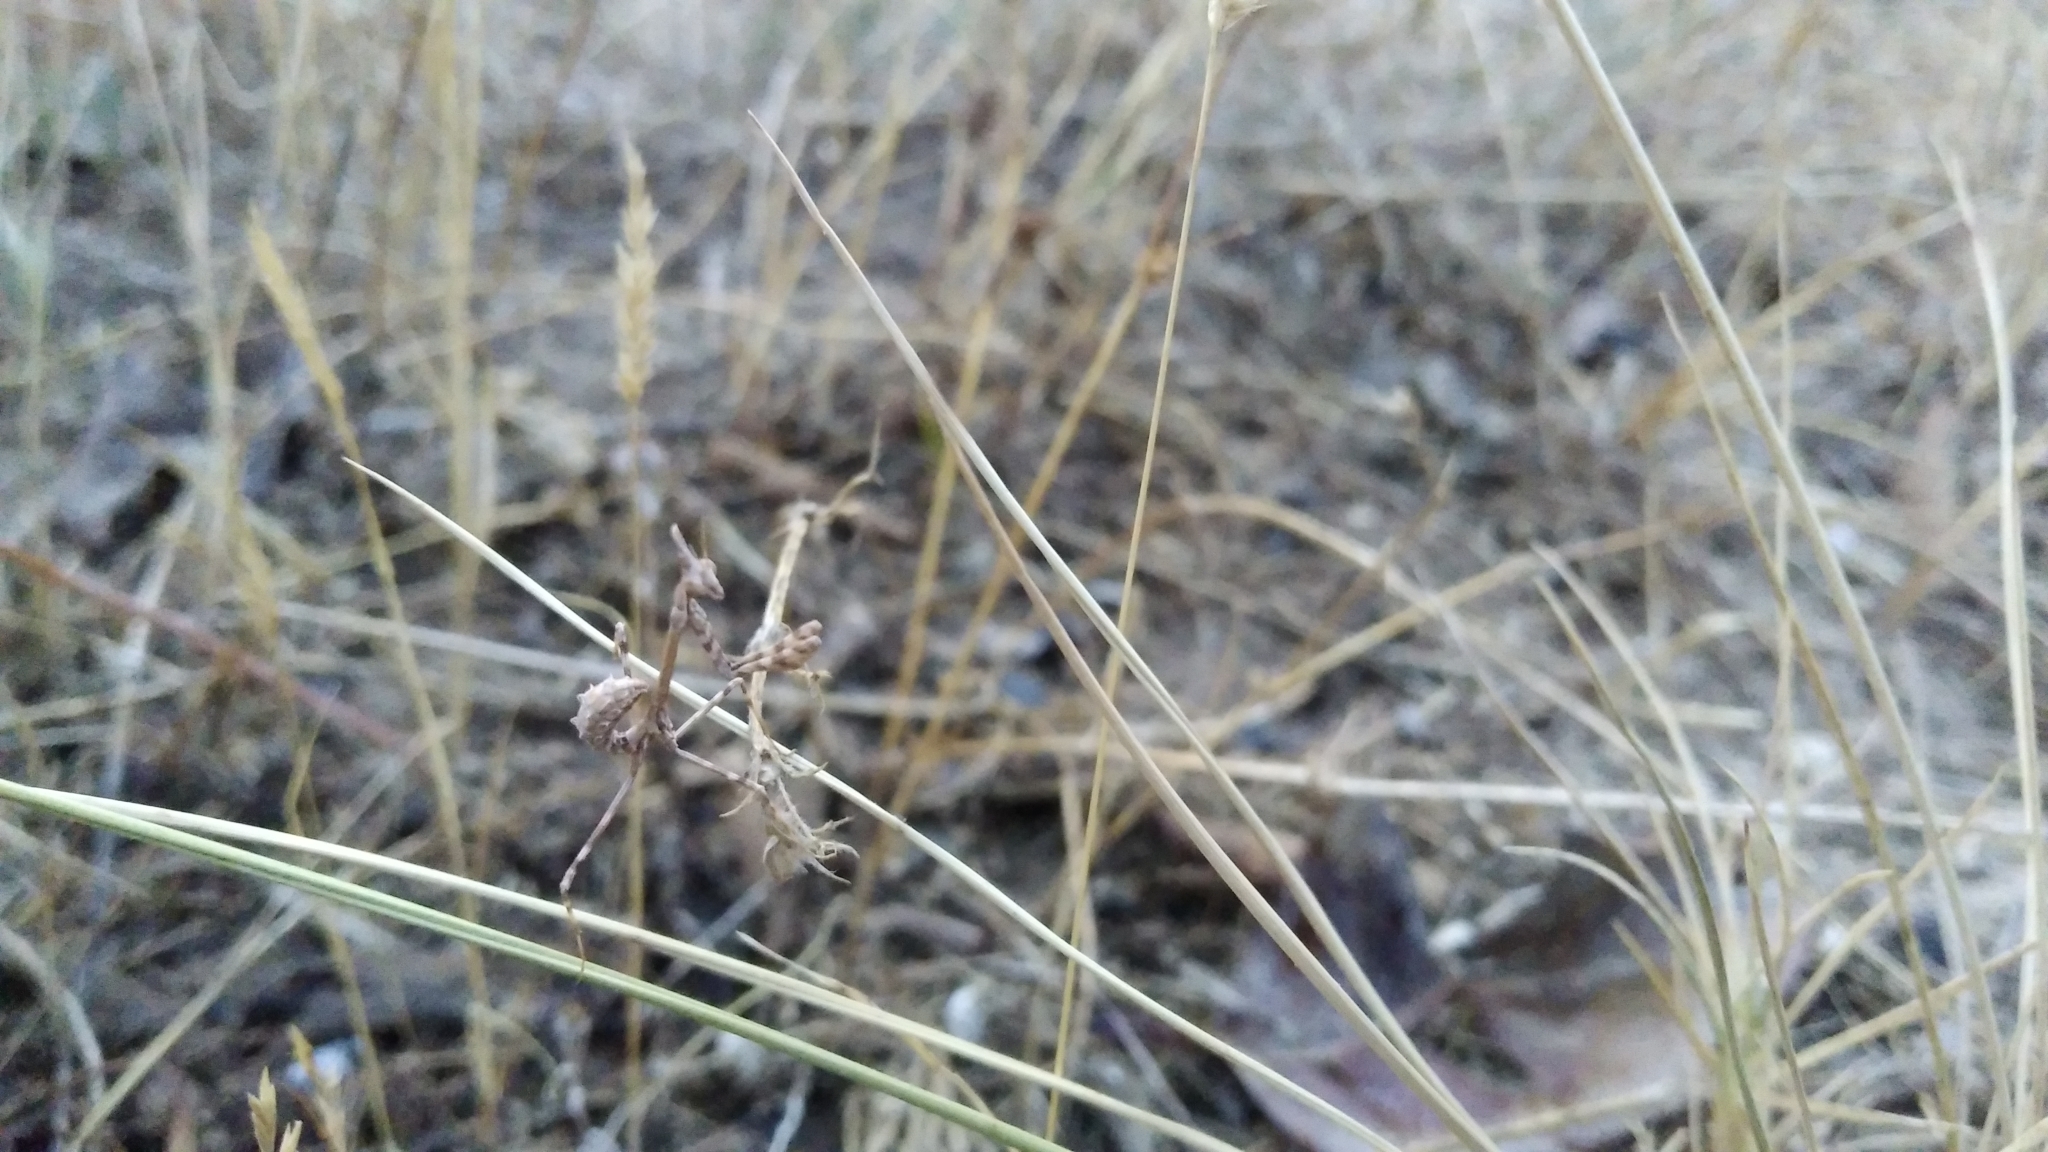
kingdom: Animalia
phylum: Arthropoda
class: Insecta
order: Mantodea
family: Empusidae
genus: Empusa
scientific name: Empusa pennata
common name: Conehead mantis
